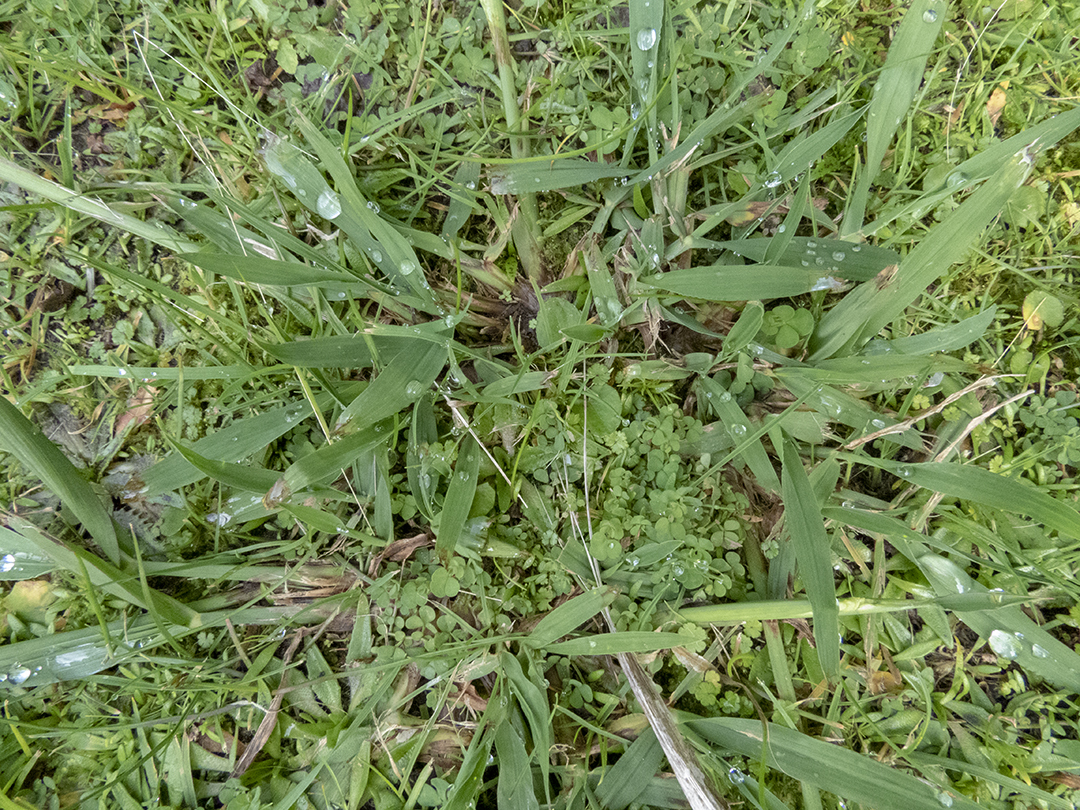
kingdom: Plantae
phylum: Tracheophyta
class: Liliopsida
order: Poales
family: Poaceae
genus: Paspalum
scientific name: Paspalum dilatatum
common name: Dallisgrass
